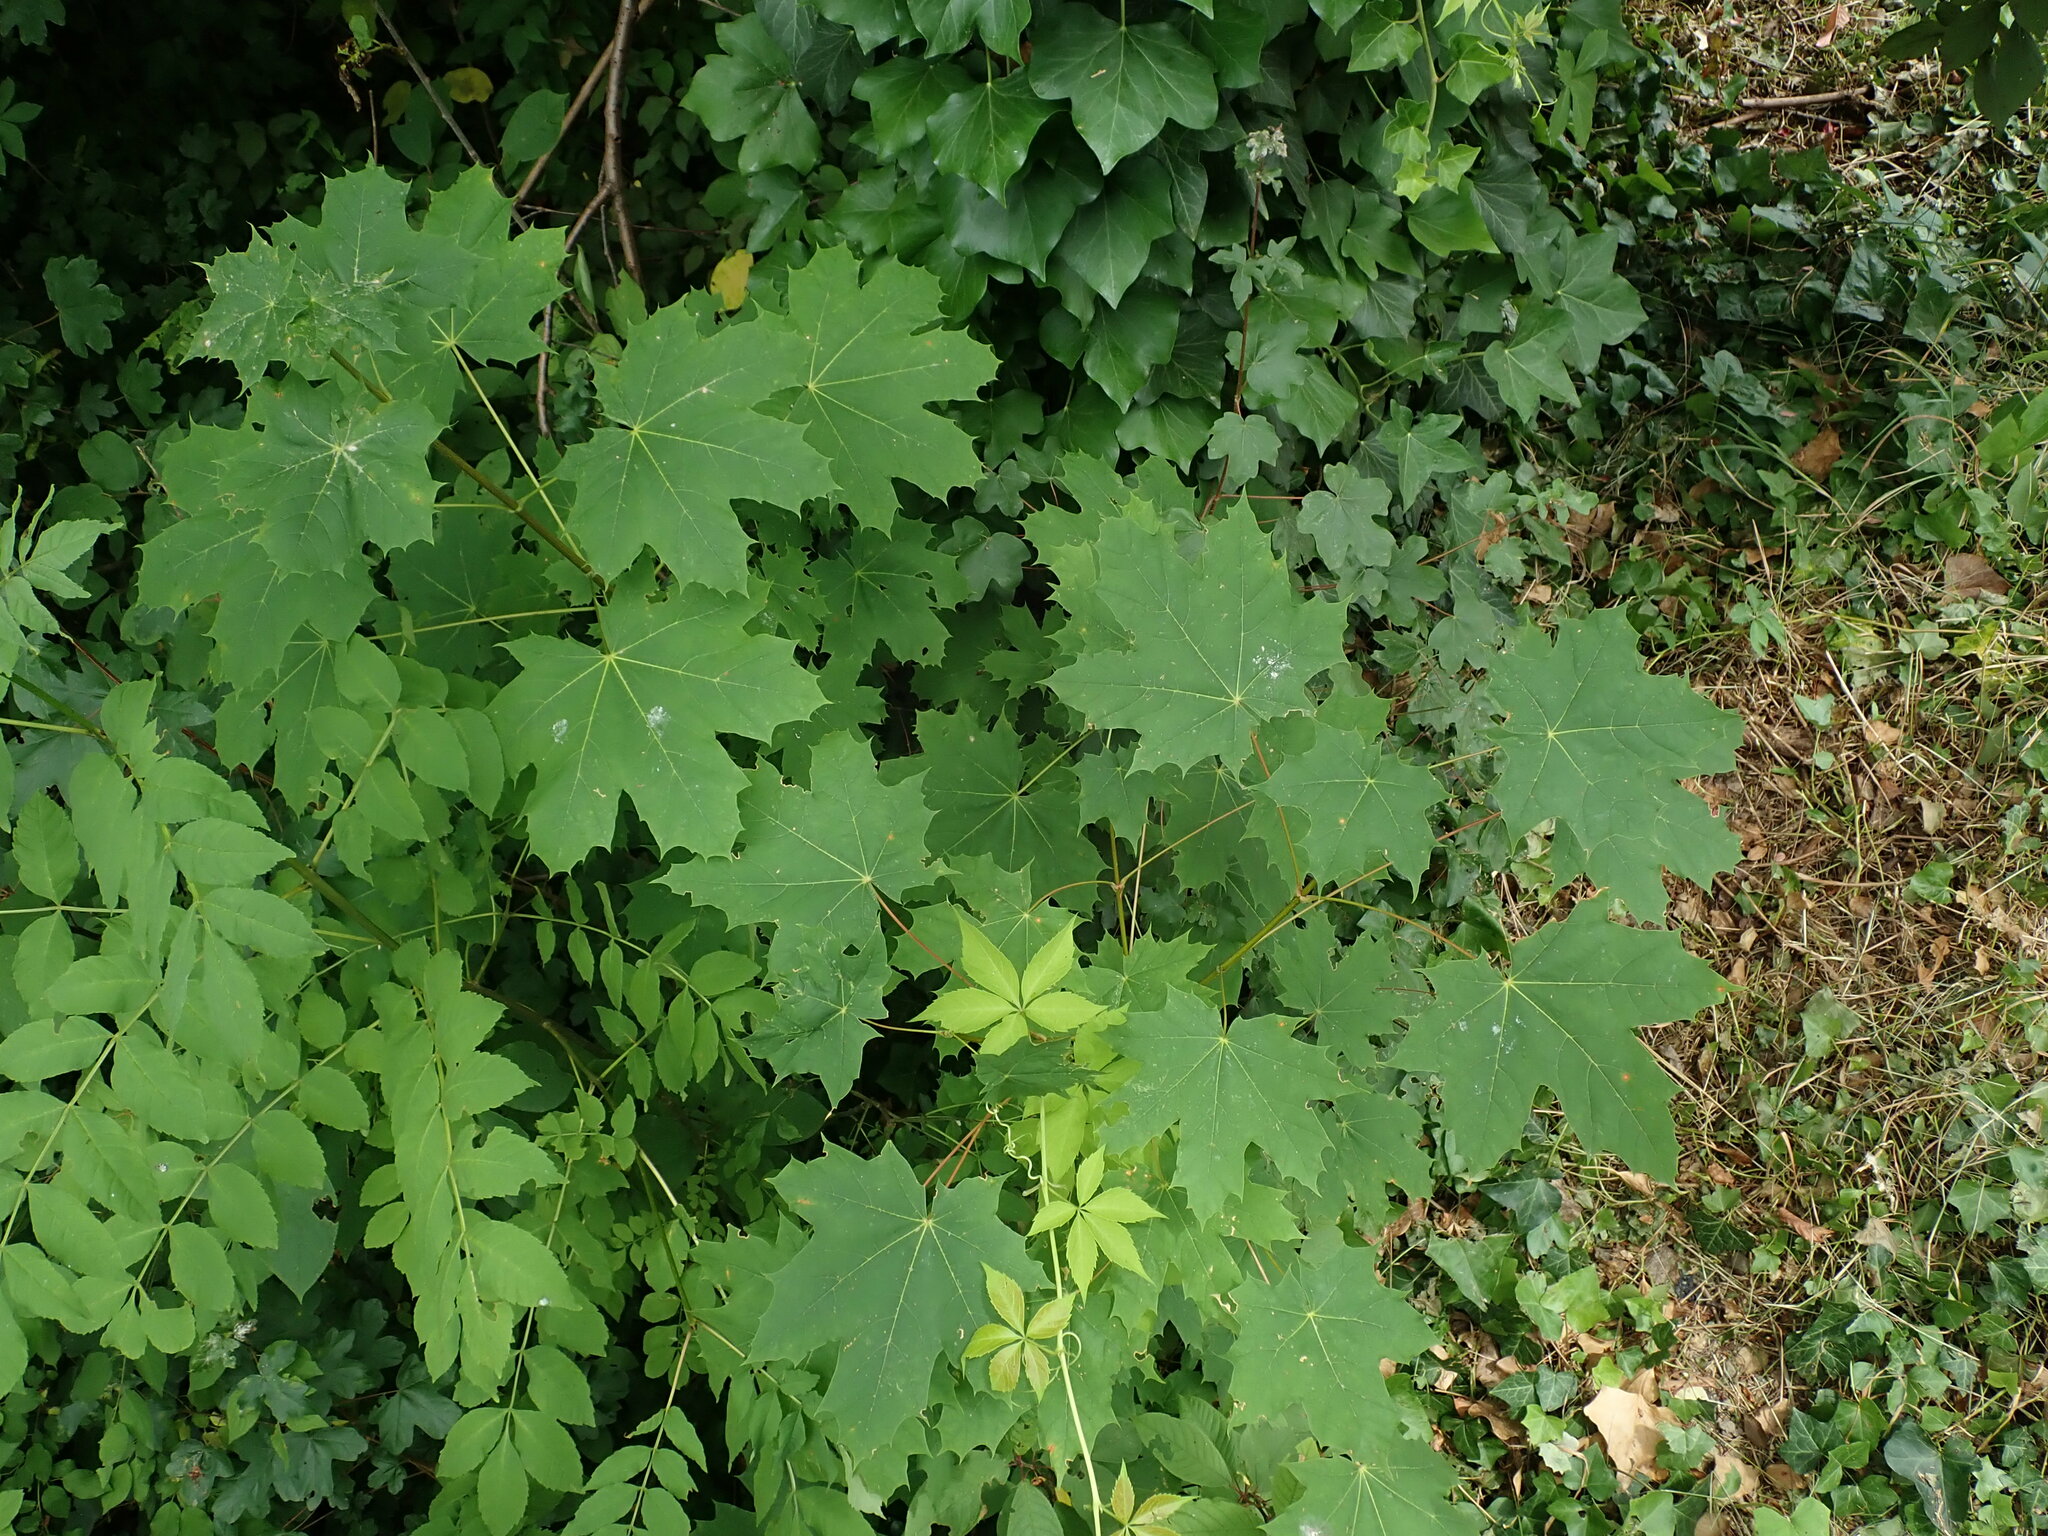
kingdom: Plantae
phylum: Tracheophyta
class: Magnoliopsida
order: Sapindales
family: Sapindaceae
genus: Acer
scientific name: Acer platanoides
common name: Norway maple
